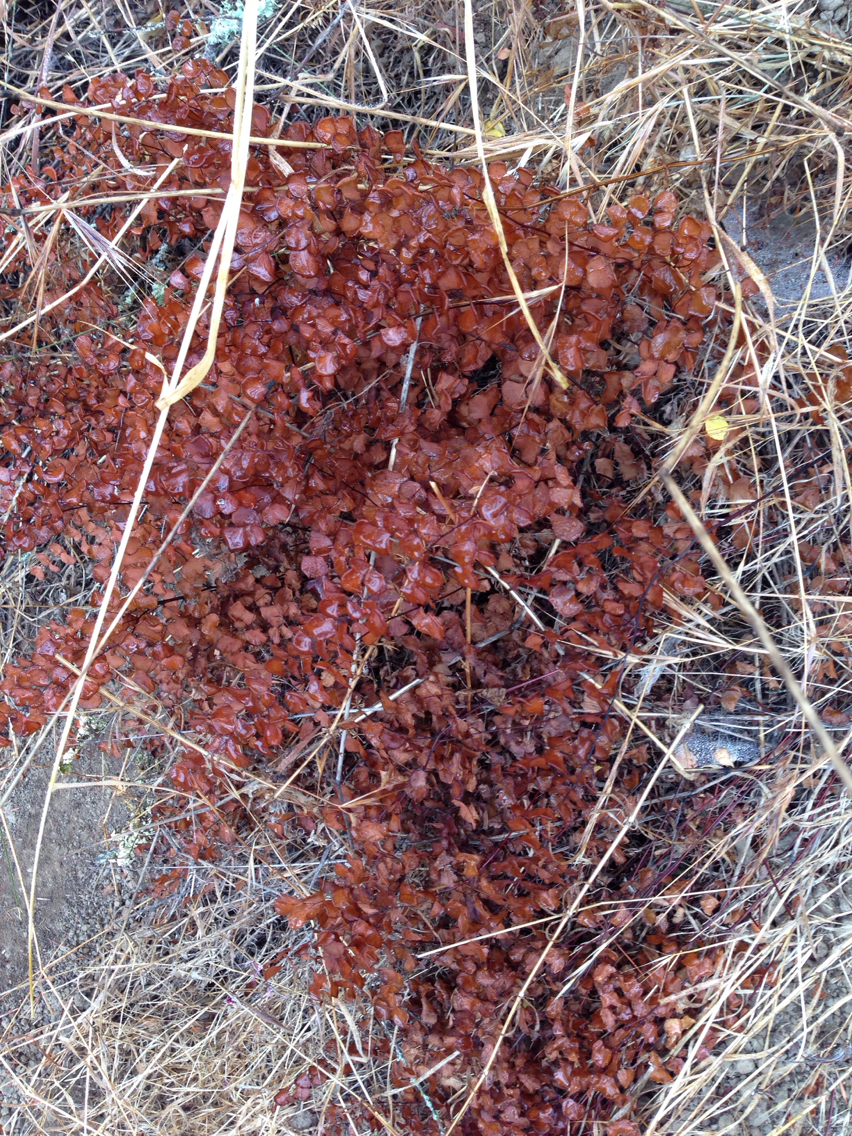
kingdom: Plantae
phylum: Tracheophyta
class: Polypodiopsida
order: Polypodiales
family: Pteridaceae
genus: Adiantum
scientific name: Adiantum jordanii
